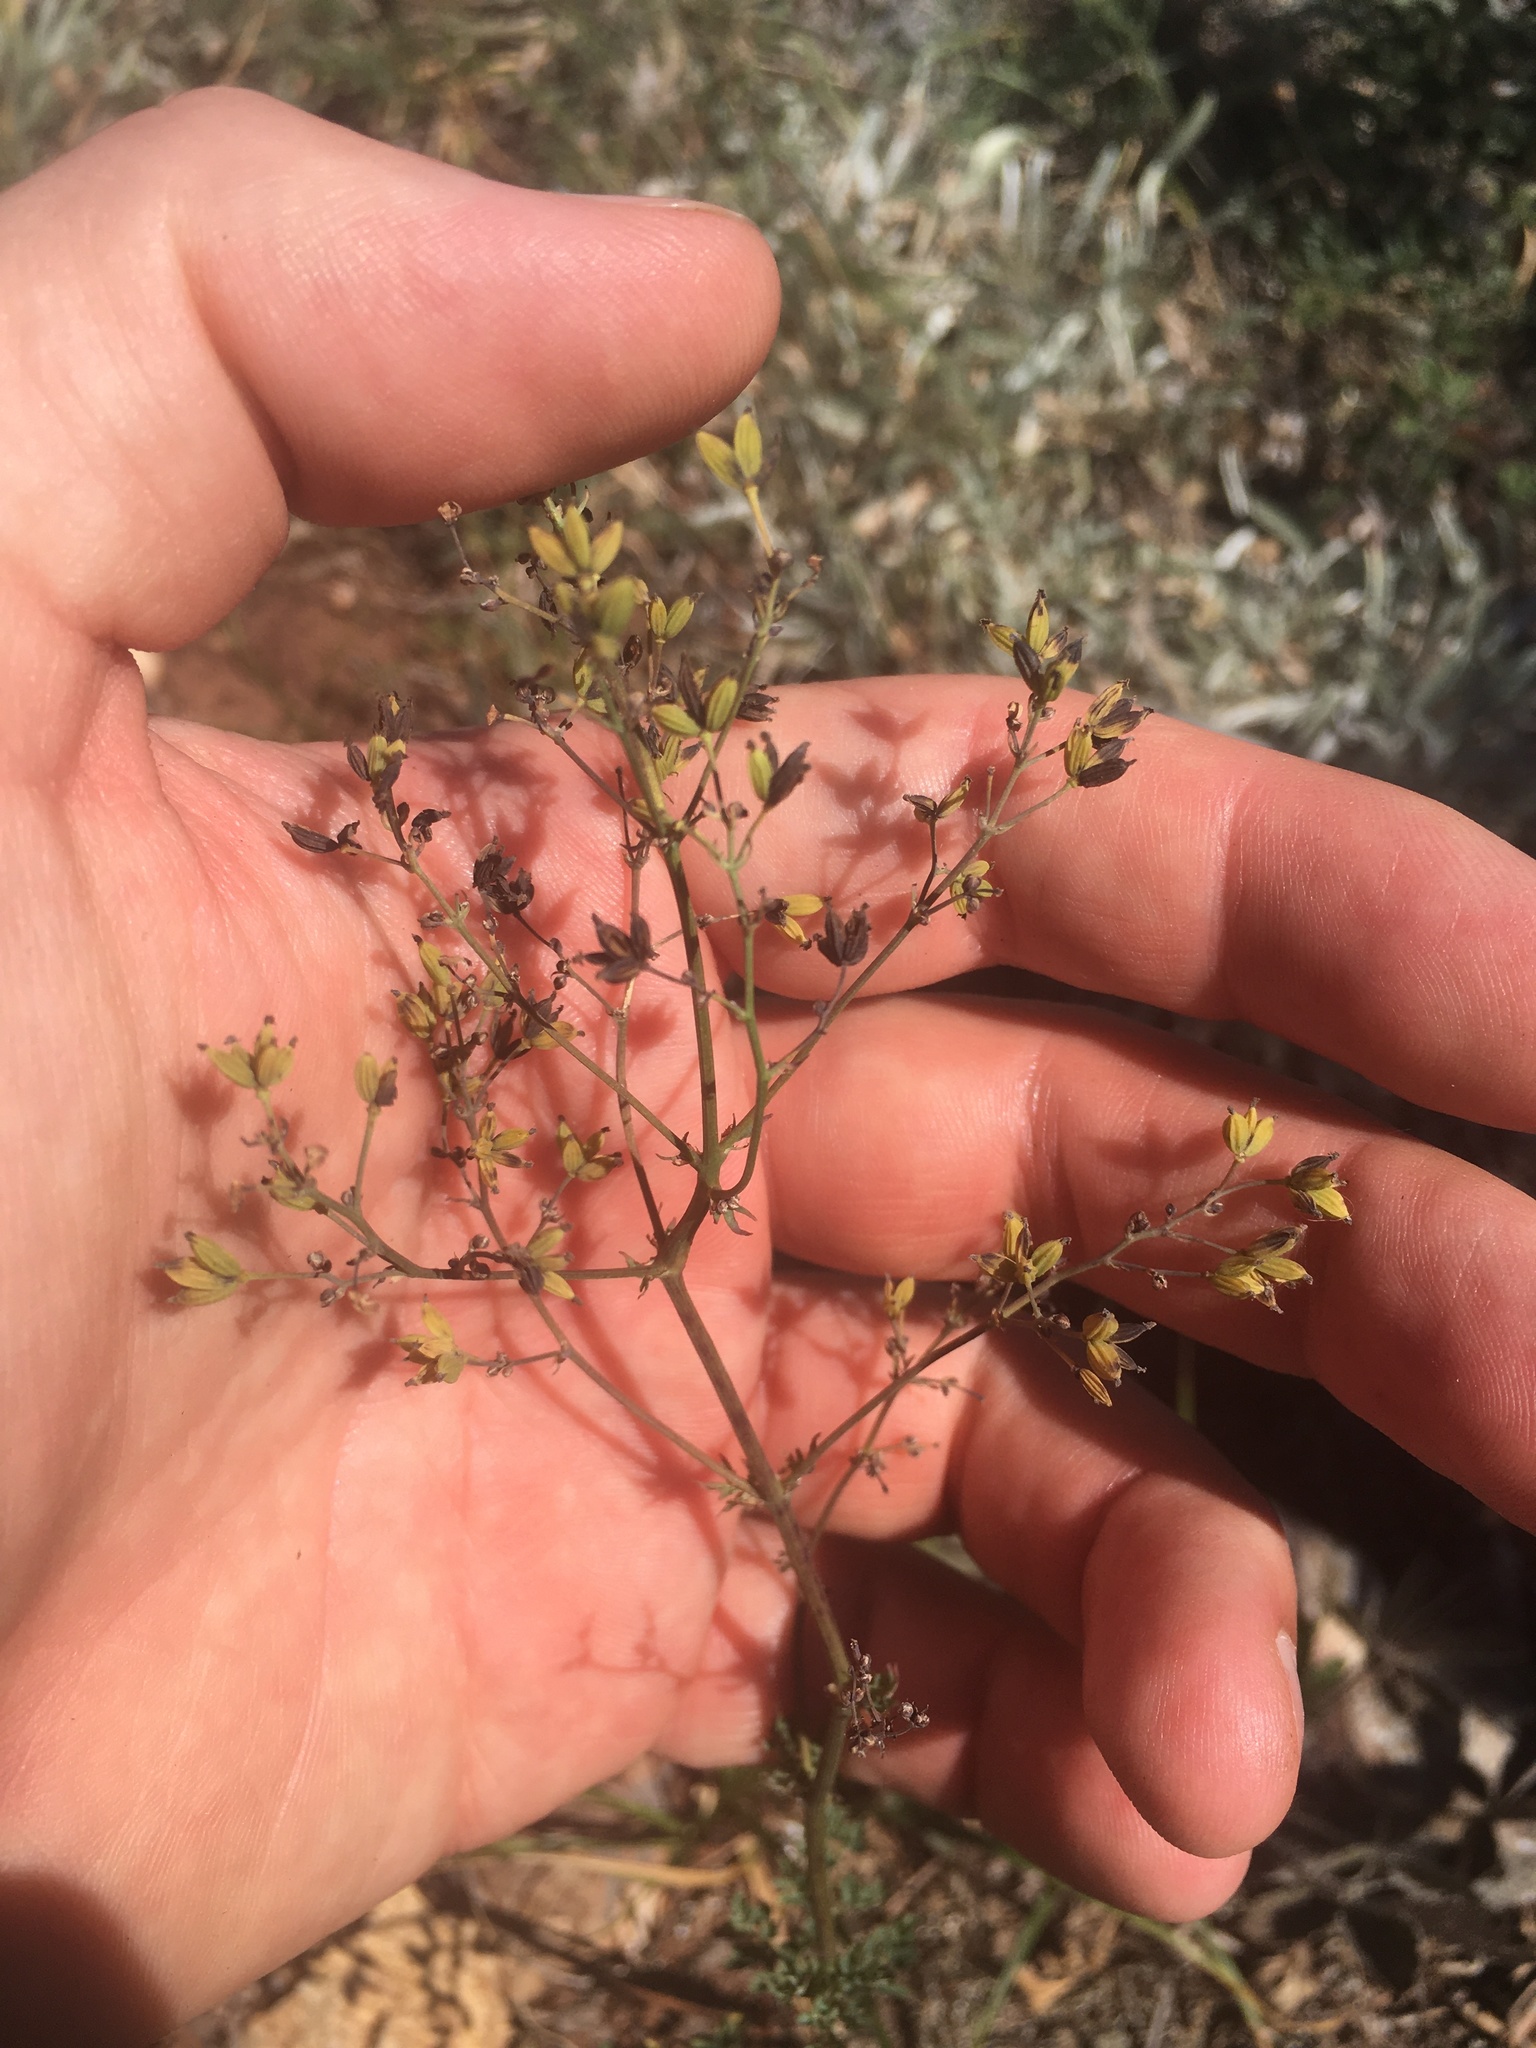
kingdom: Plantae
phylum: Tracheophyta
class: Magnoliopsida
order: Ranunculales
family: Ranunculaceae
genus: Thalictrum
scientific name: Thalictrum minus
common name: Lesser meadow-rue
